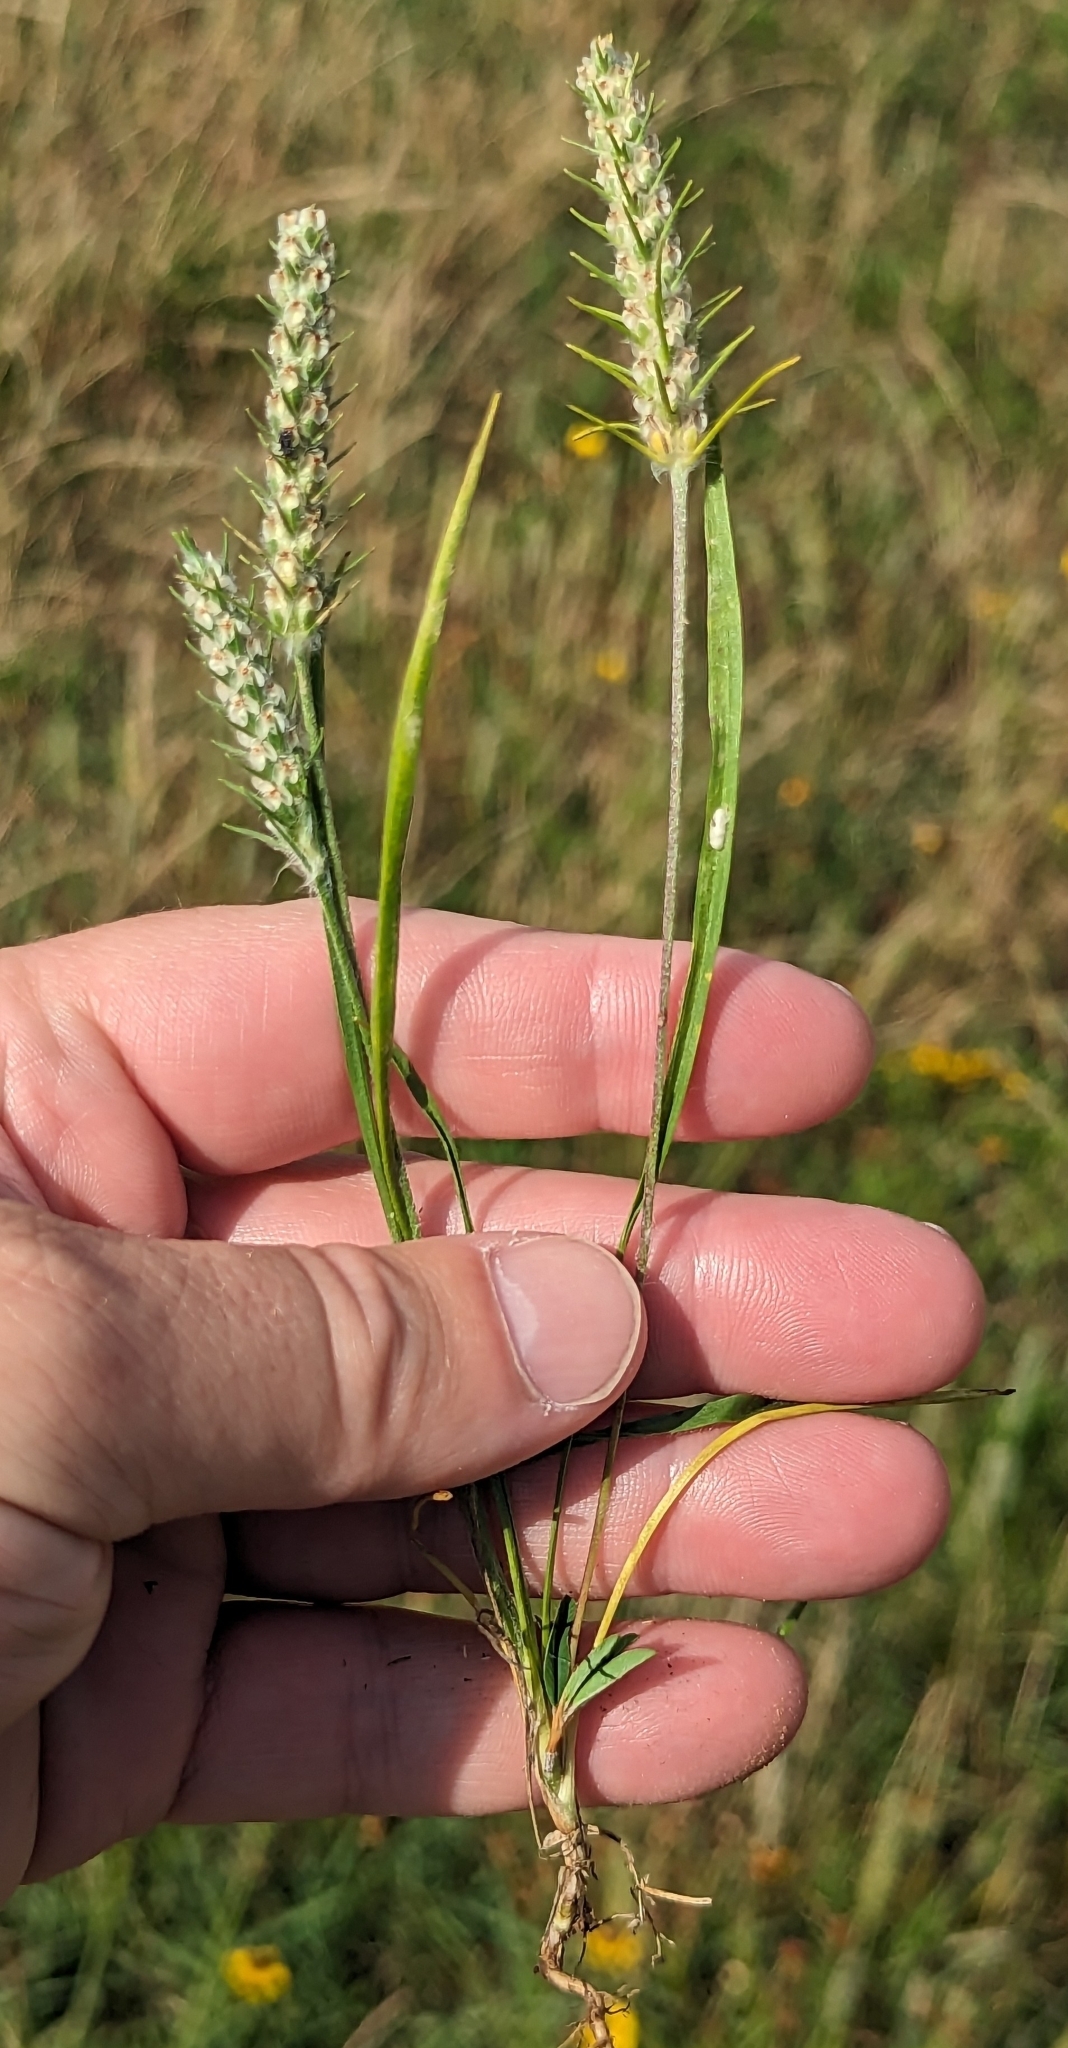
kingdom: Plantae
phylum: Tracheophyta
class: Magnoliopsida
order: Lamiales
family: Plantaginaceae
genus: Plantago
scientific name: Plantago aristata
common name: Bracted plantain
